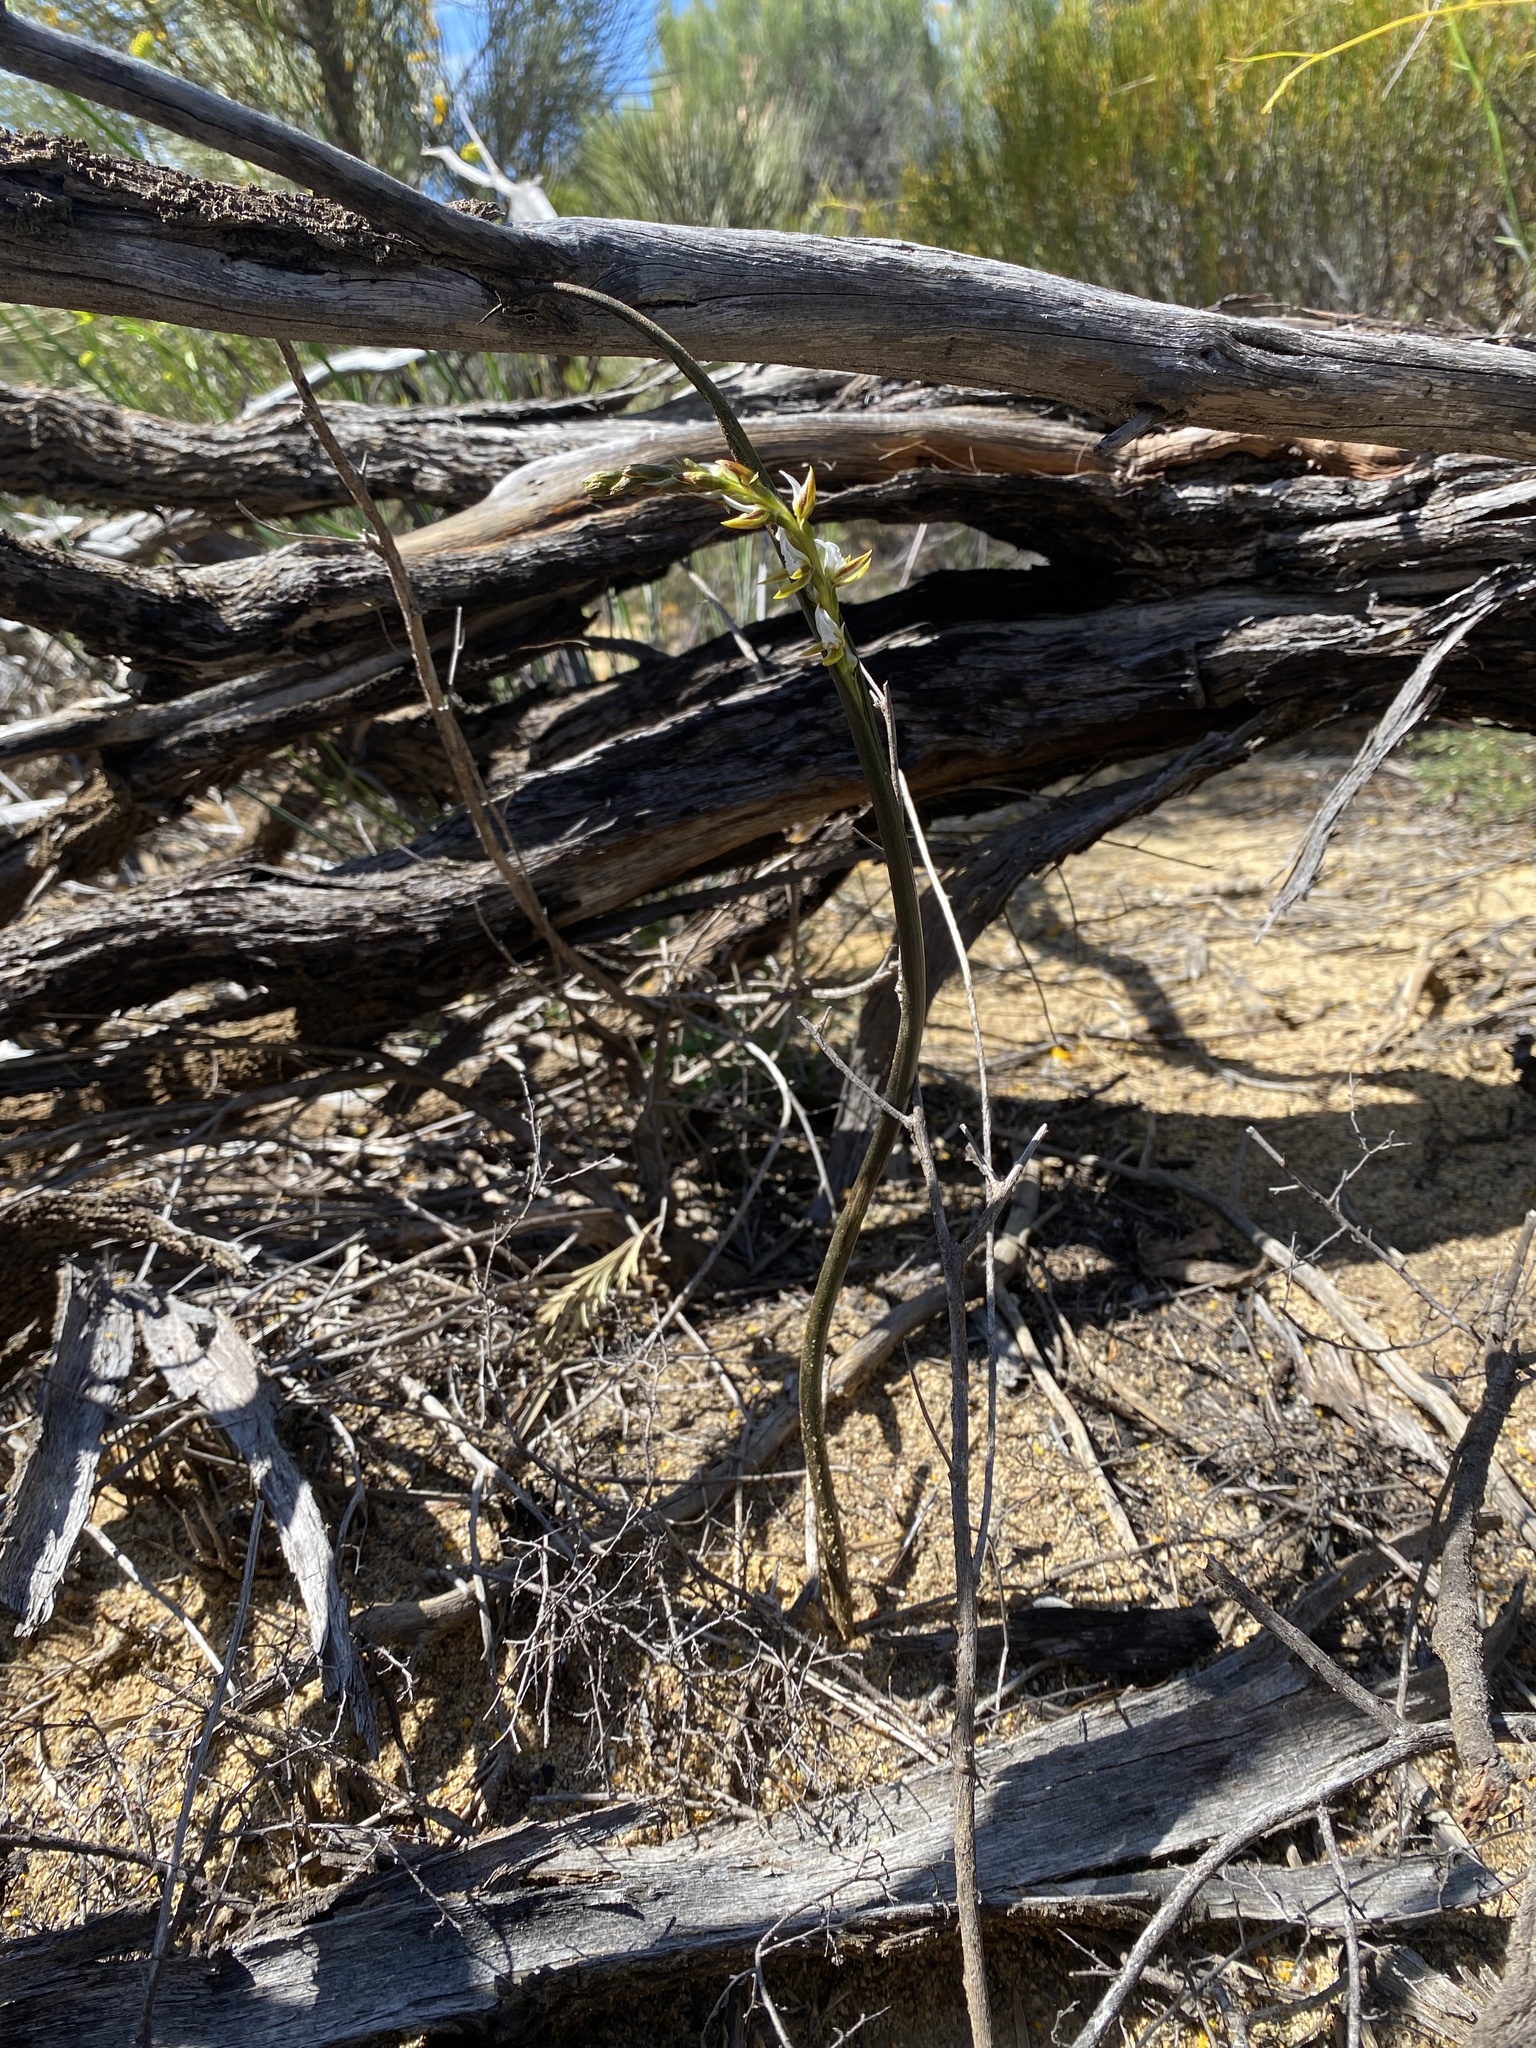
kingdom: Plantae
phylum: Tracheophyta
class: Liliopsida
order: Asparagales
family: Orchidaceae
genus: Prasophyllum
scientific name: Prasophyllum sargentii
